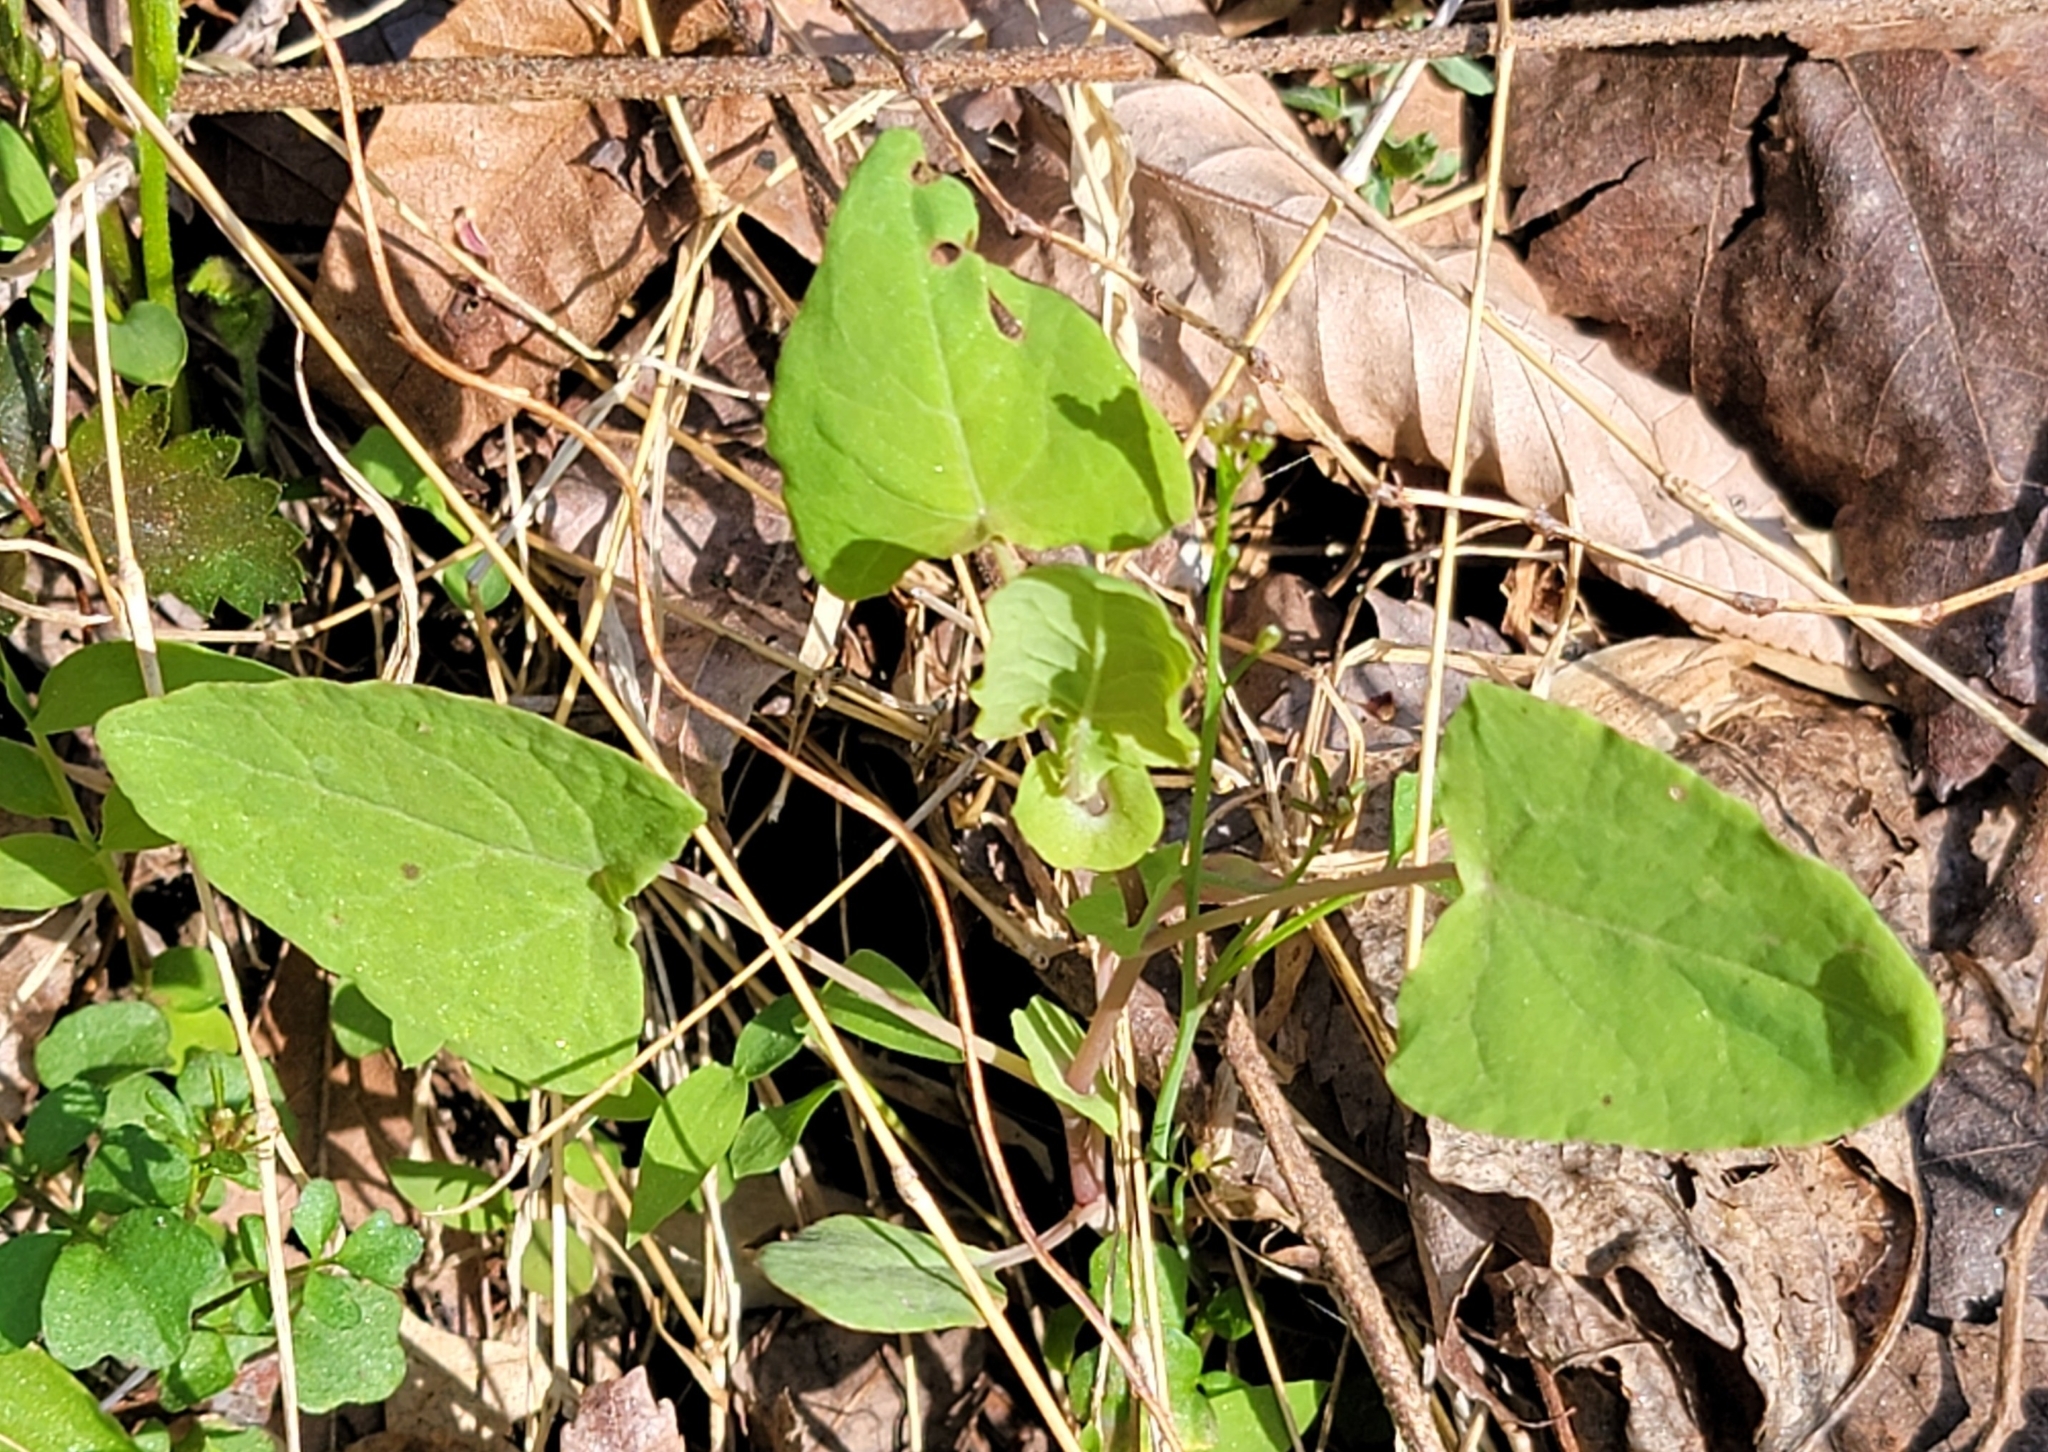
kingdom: Plantae
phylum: Tracheophyta
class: Magnoliopsida
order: Caryophyllales
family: Polygonaceae
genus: Persicaria
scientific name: Persicaria perfoliata
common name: Asiatic tearthumb
